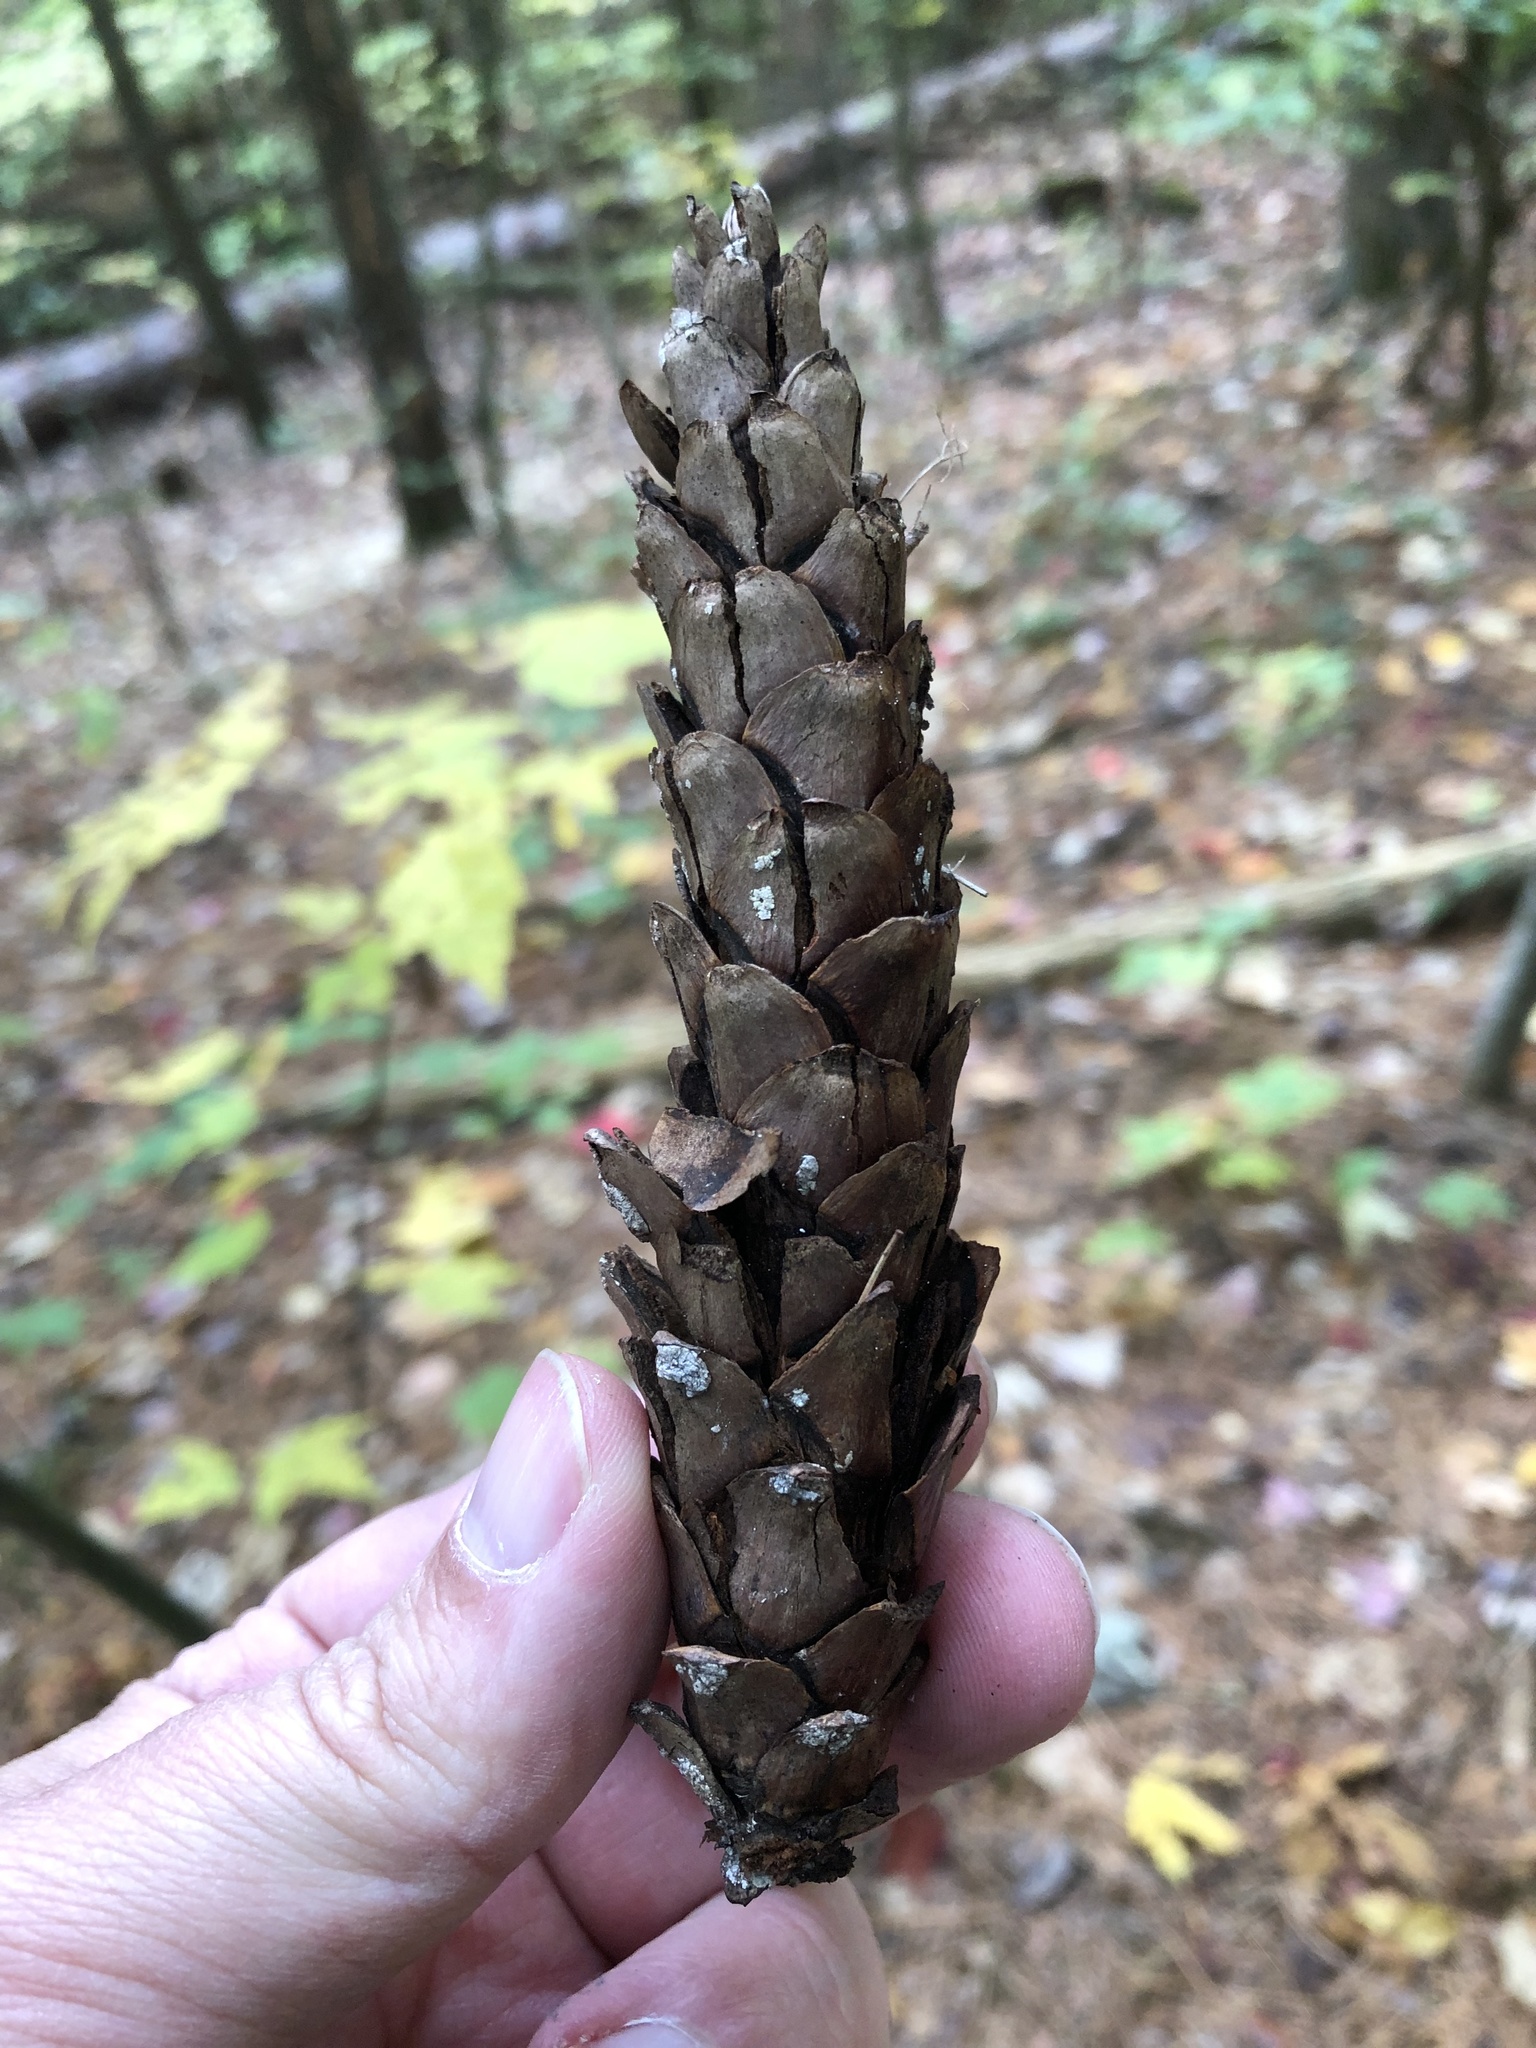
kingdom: Plantae
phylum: Tracheophyta
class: Pinopsida
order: Pinales
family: Pinaceae
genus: Pinus
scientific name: Pinus strobus
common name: Weymouth pine
